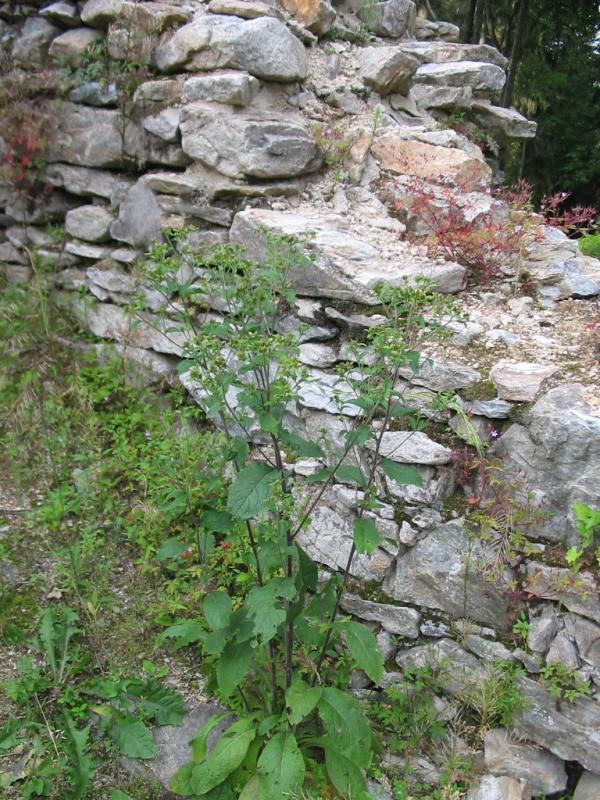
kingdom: Plantae
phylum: Tracheophyta
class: Magnoliopsida
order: Asterales
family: Asteraceae
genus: Pentanema
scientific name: Pentanema squarrosum
